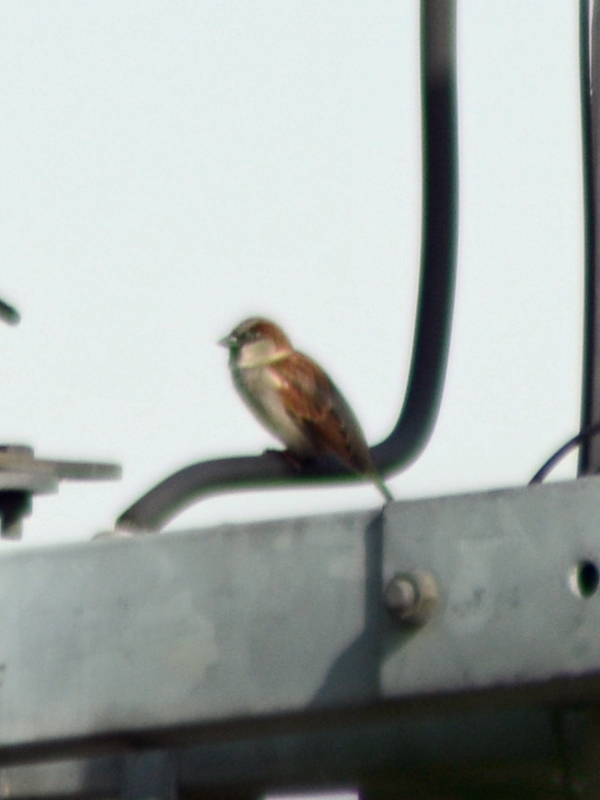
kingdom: Animalia
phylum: Chordata
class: Aves
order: Passeriformes
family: Passeridae
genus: Passer
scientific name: Passer domesticus
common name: House sparrow
